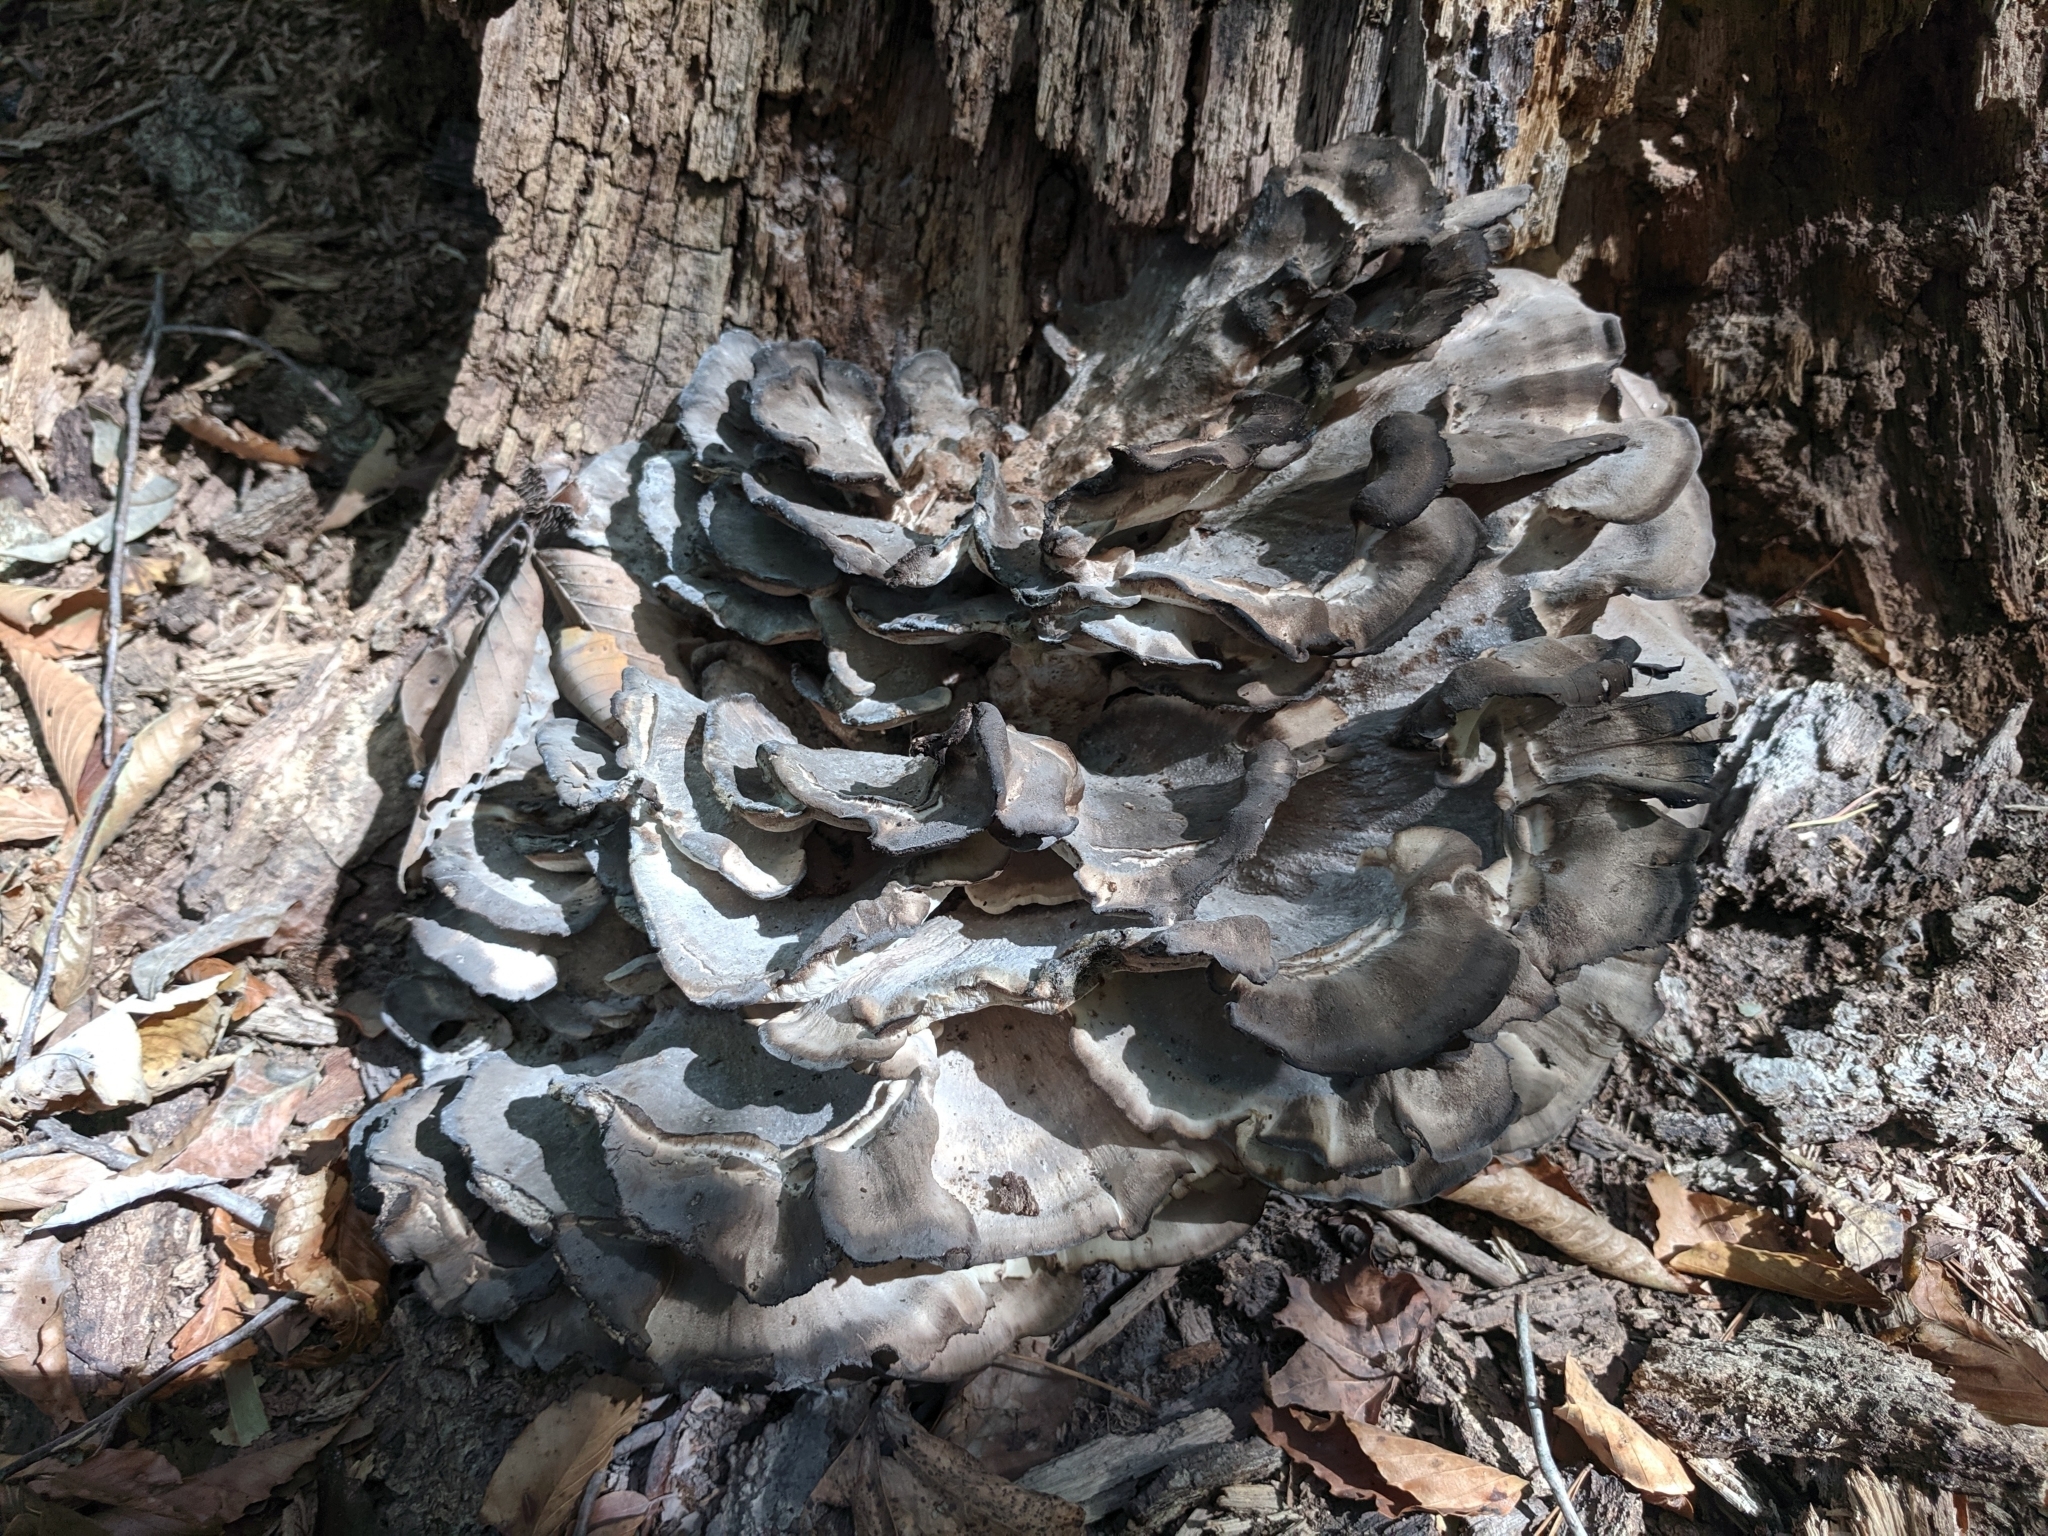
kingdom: Fungi
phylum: Basidiomycota
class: Agaricomycetes
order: Polyporales
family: Meripilaceae
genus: Meripilus
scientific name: Meripilus sumstinei
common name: Black-staining polypore
